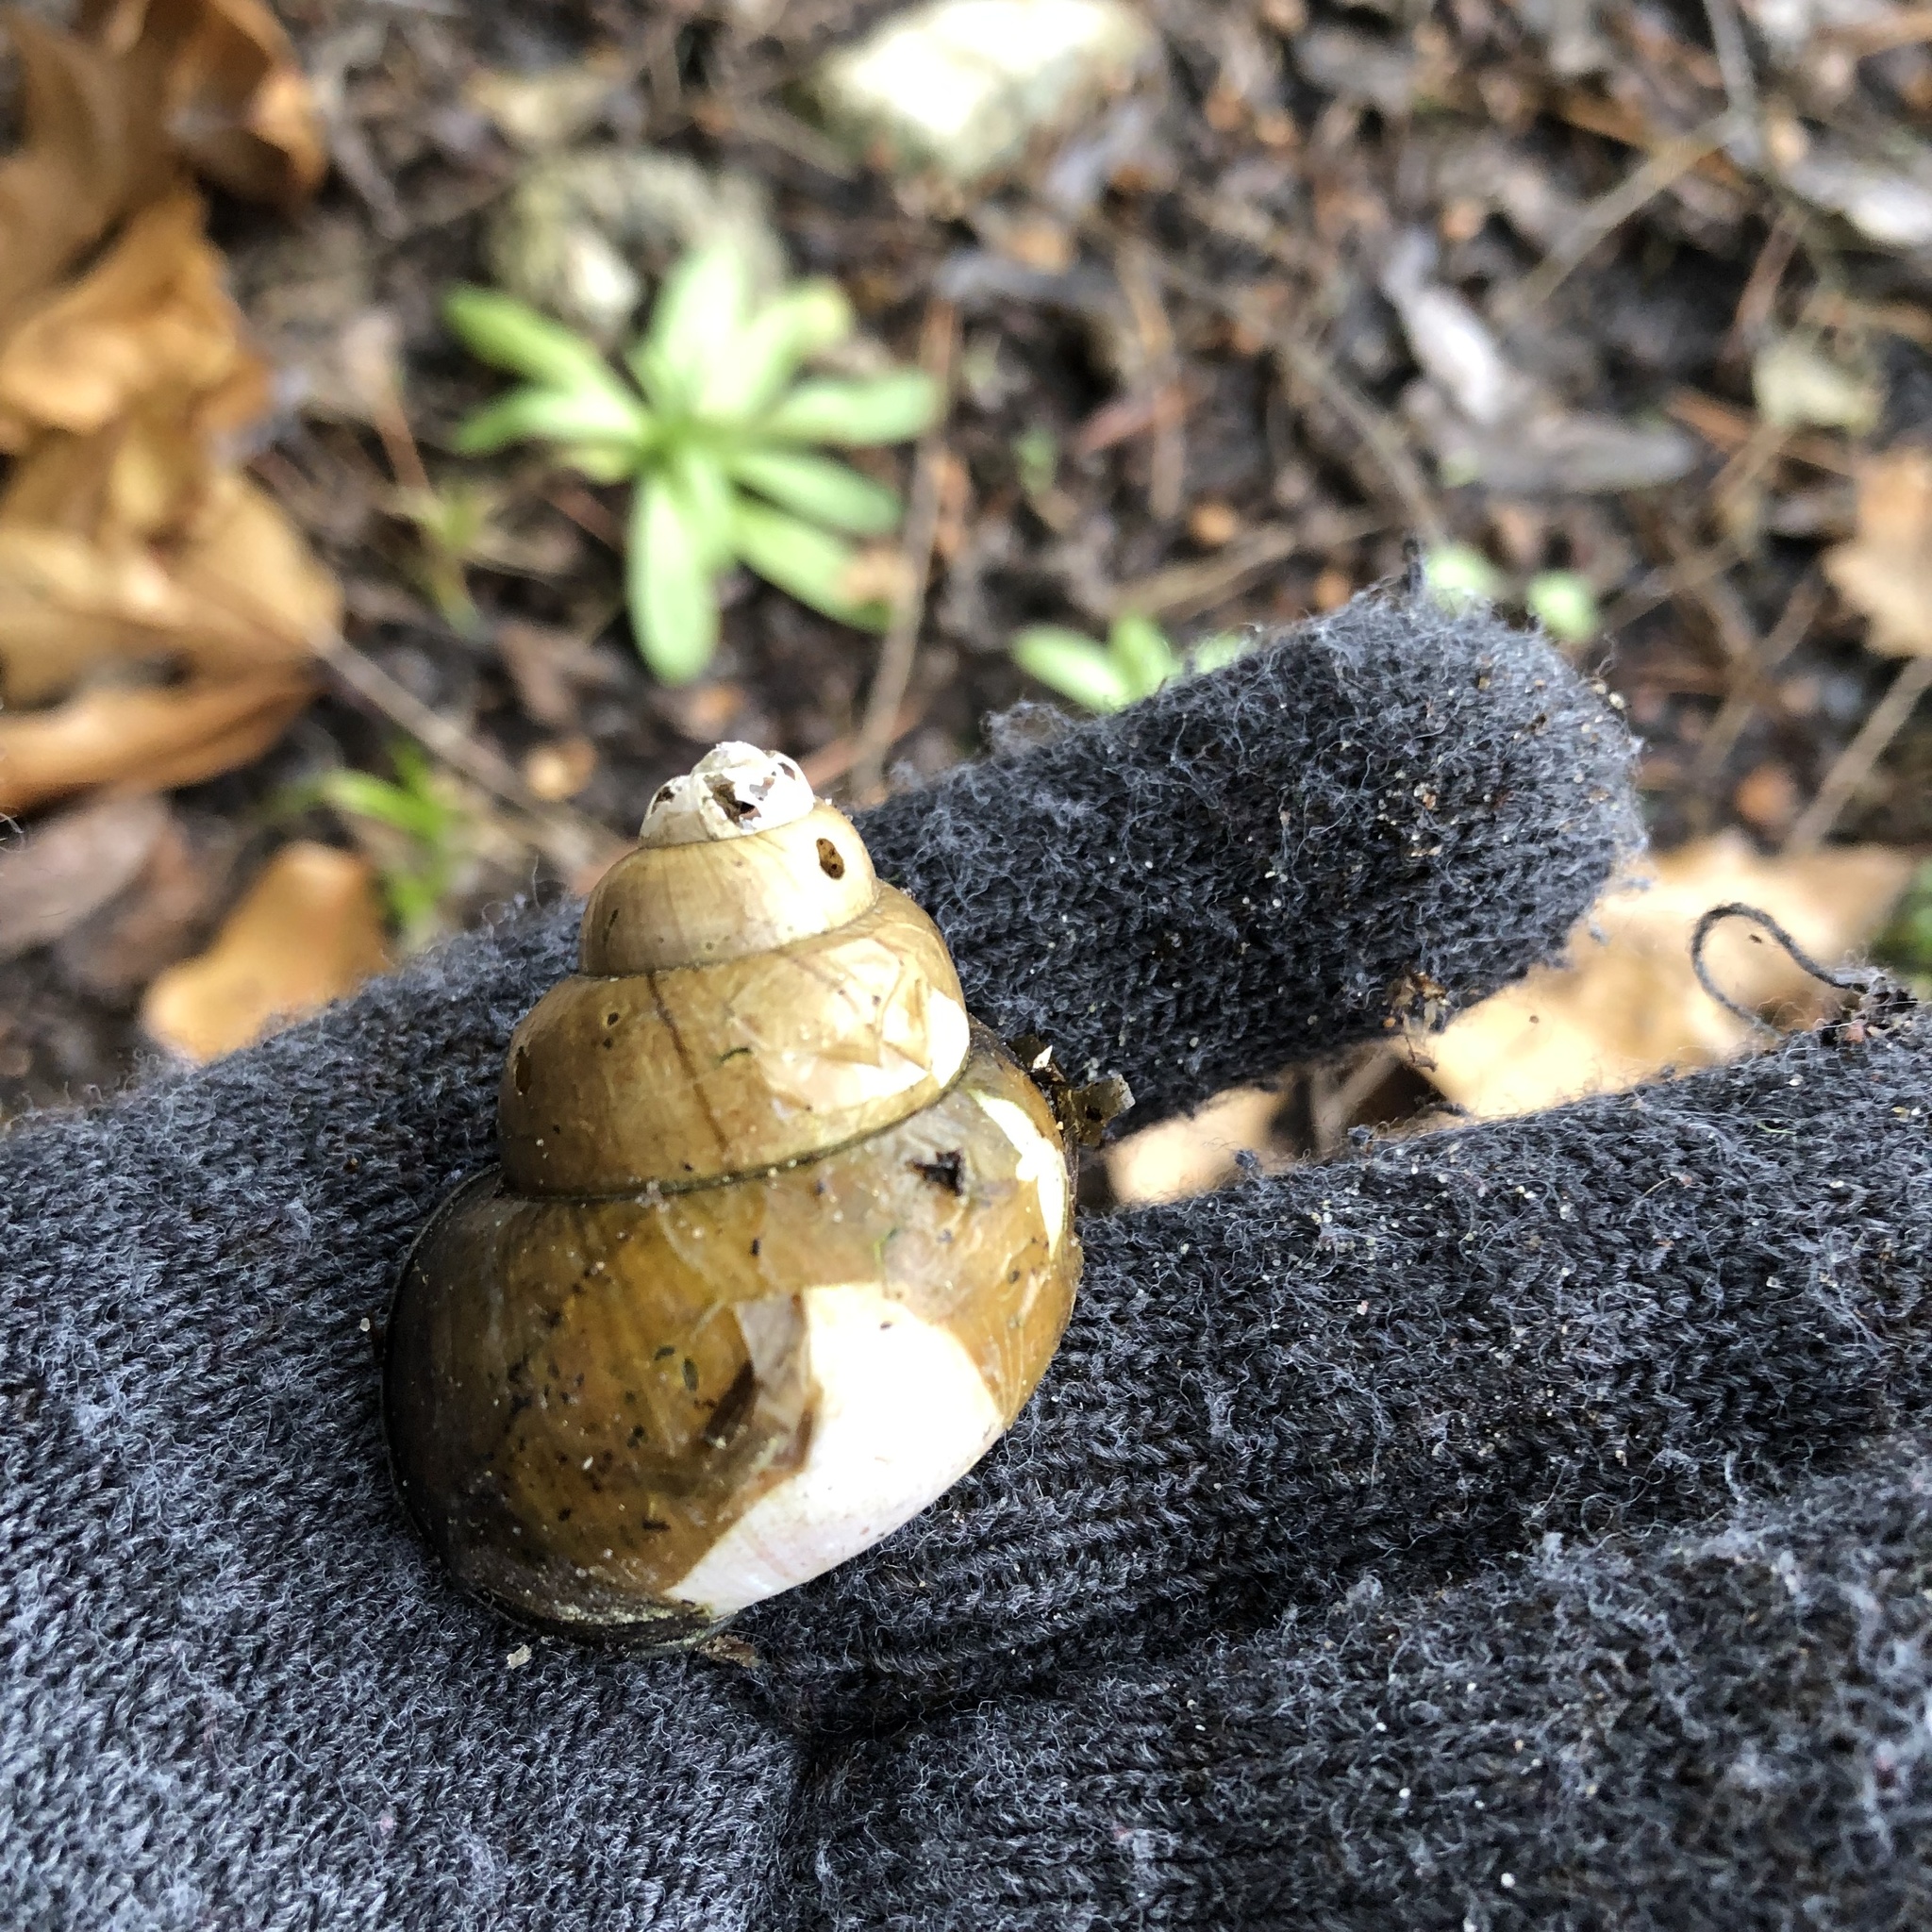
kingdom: Animalia
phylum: Mollusca
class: Gastropoda
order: Architaenioglossa
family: Viviparidae
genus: Cipangopaludina
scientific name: Cipangopaludina chinensis
